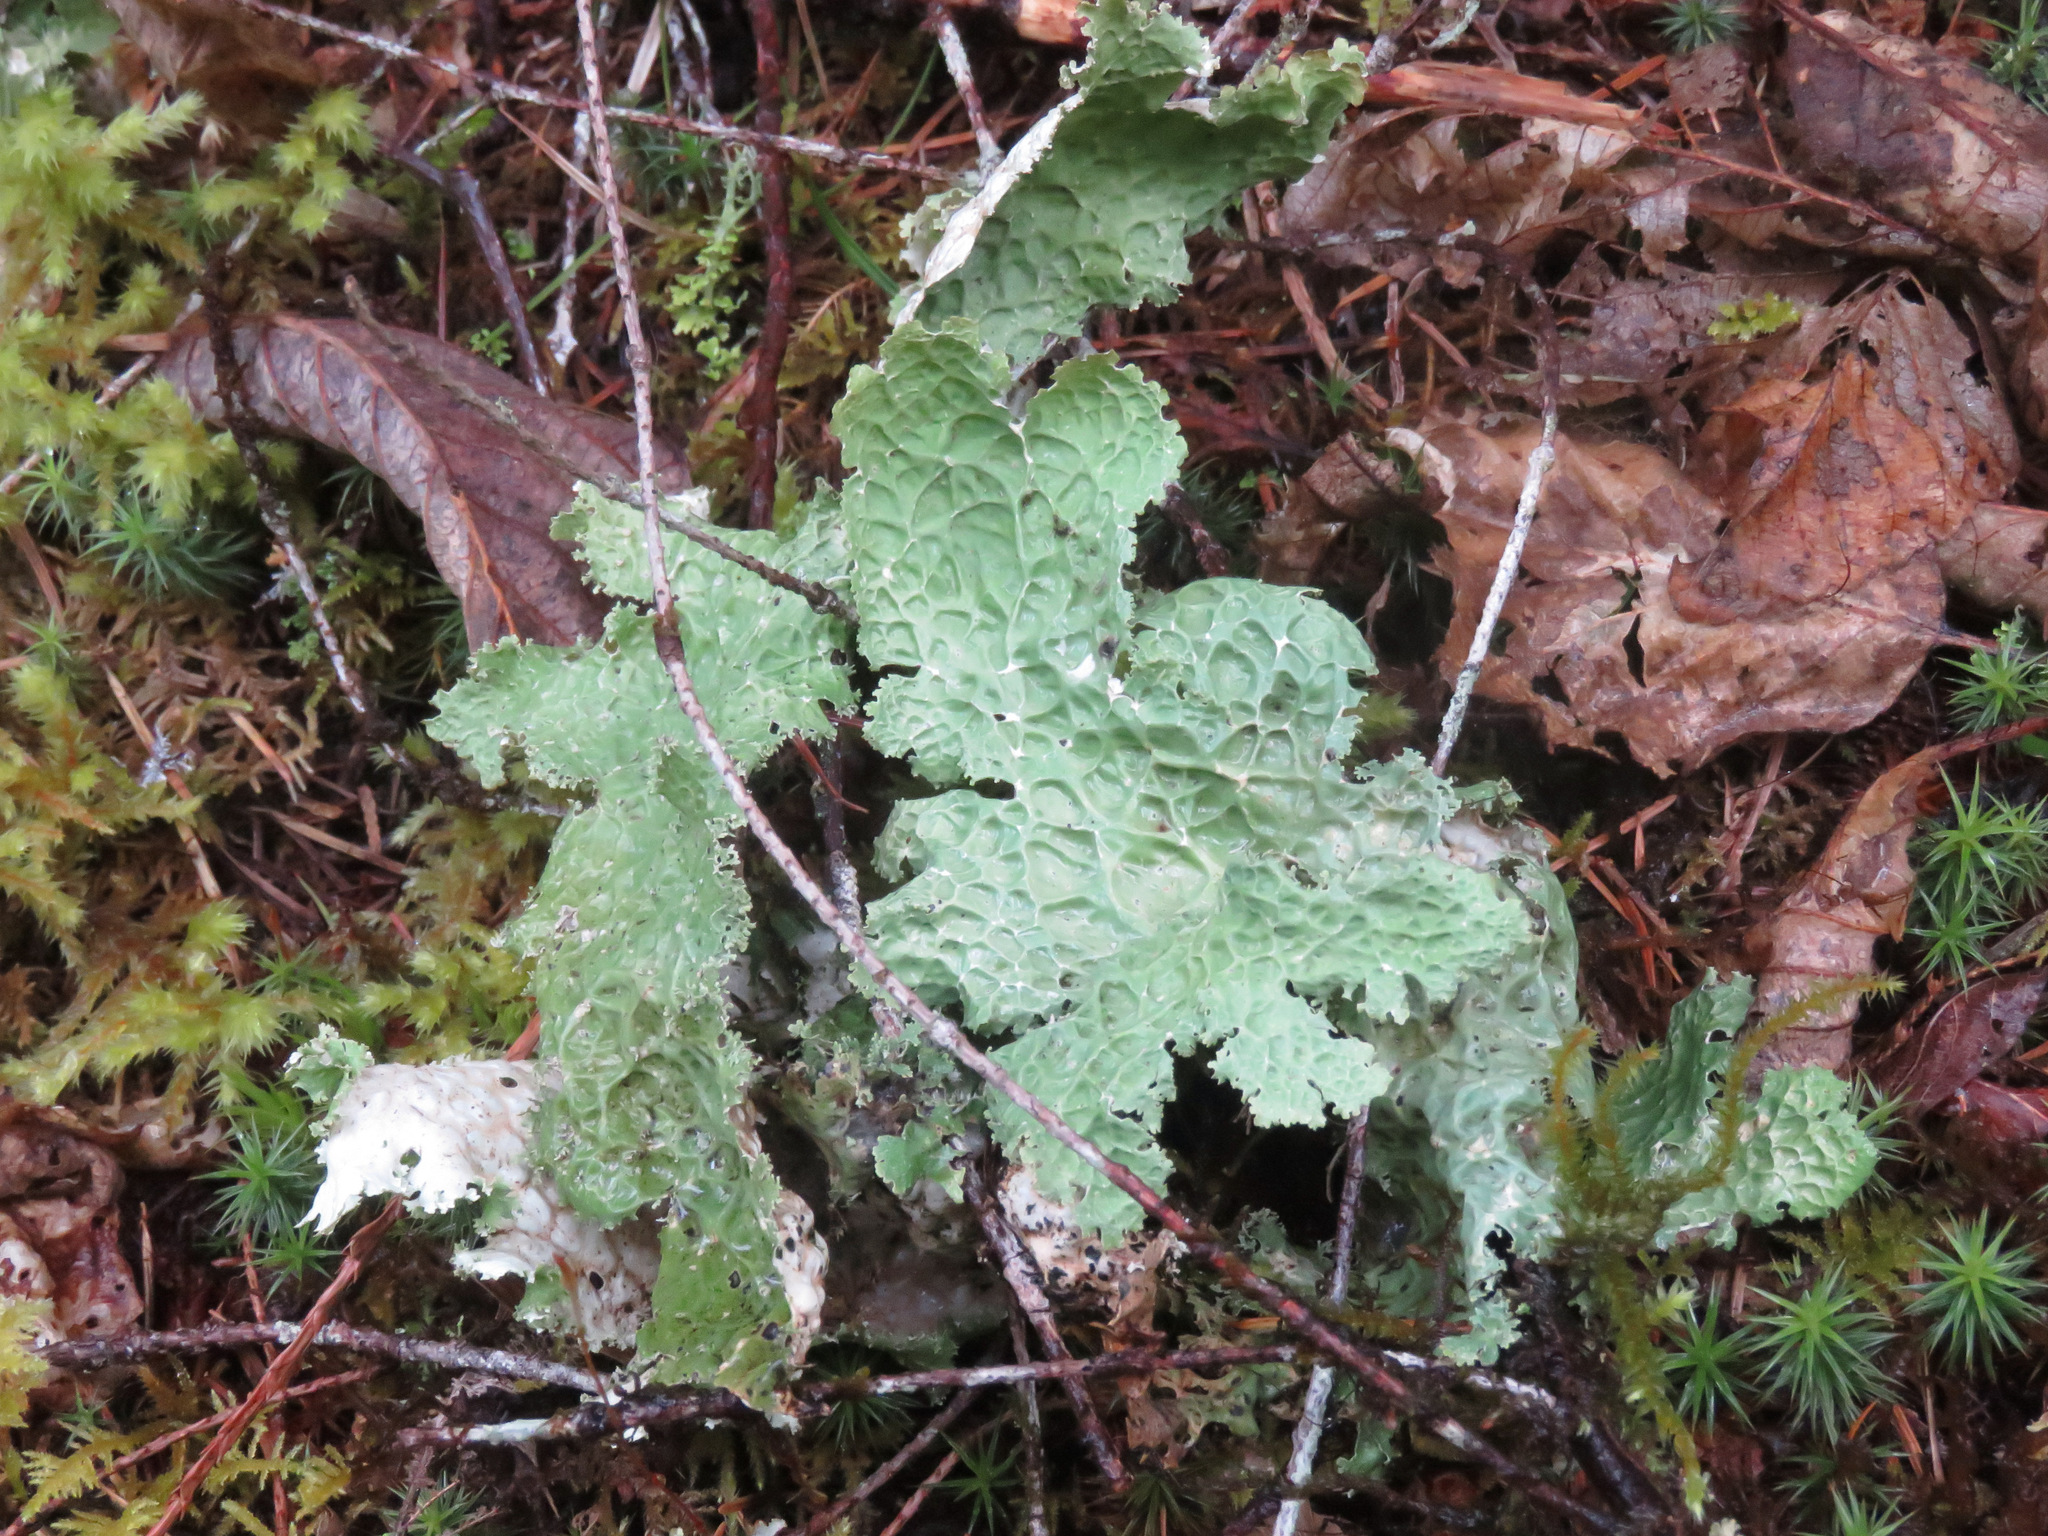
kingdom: Fungi
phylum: Ascomycota
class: Lecanoromycetes
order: Peltigerales
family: Lobariaceae
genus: Lobaria
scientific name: Lobaria oregana
